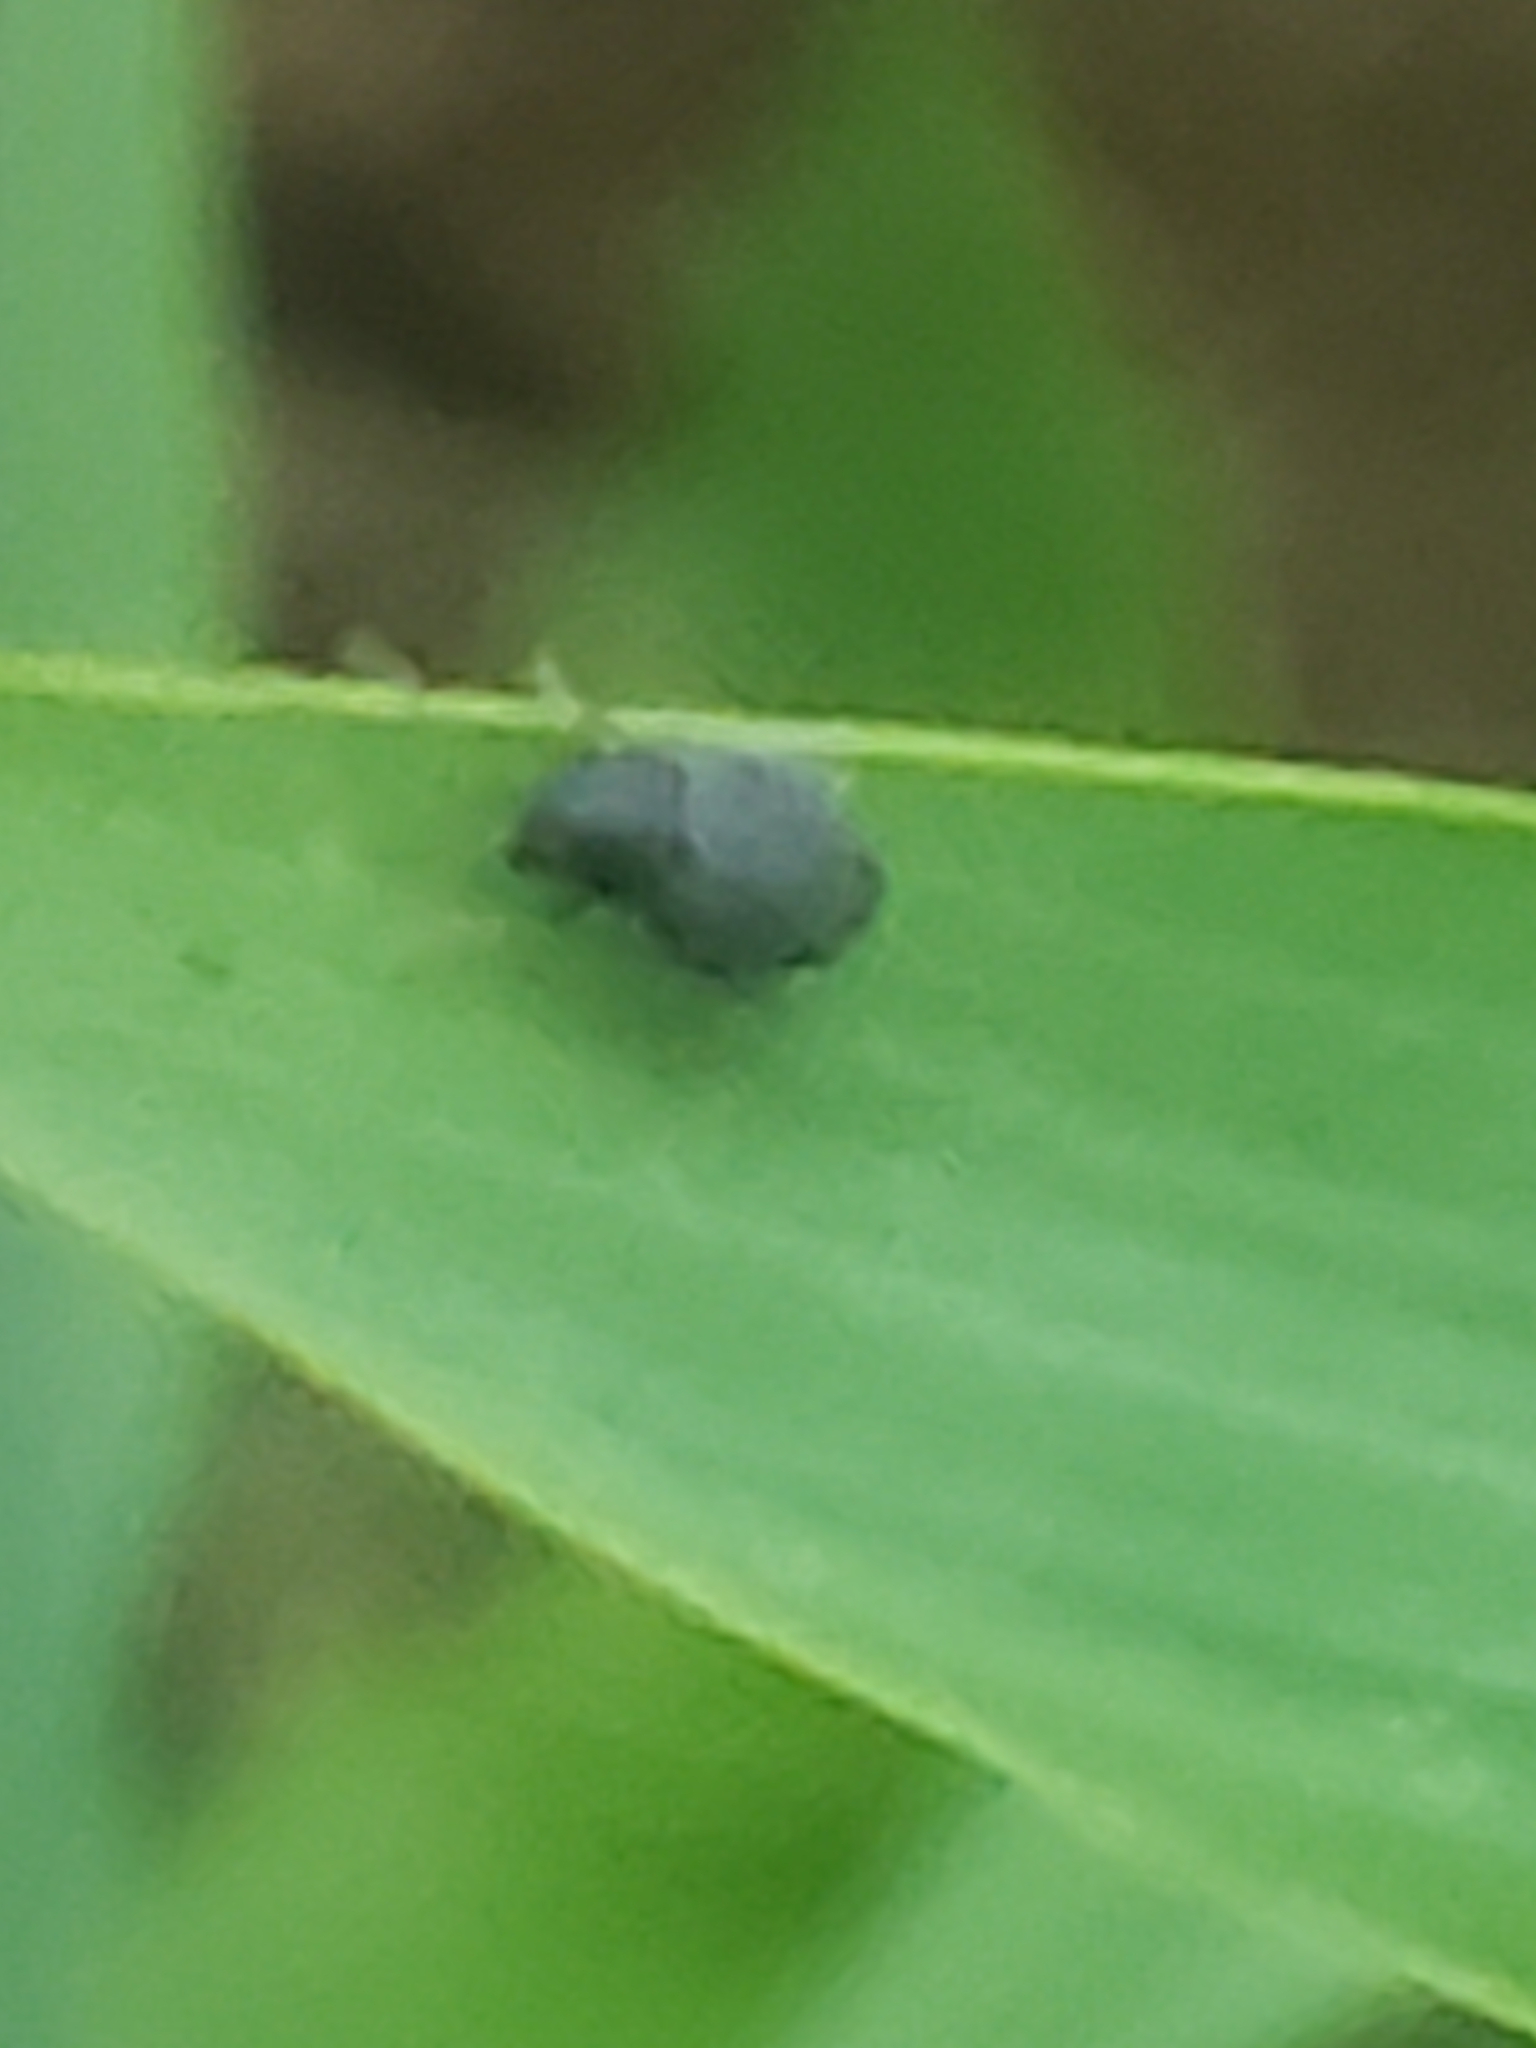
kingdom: Animalia
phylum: Arthropoda
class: Insecta
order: Coleoptera
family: Chrysomelidae
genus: Epitrix
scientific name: Epitrix fuscula
